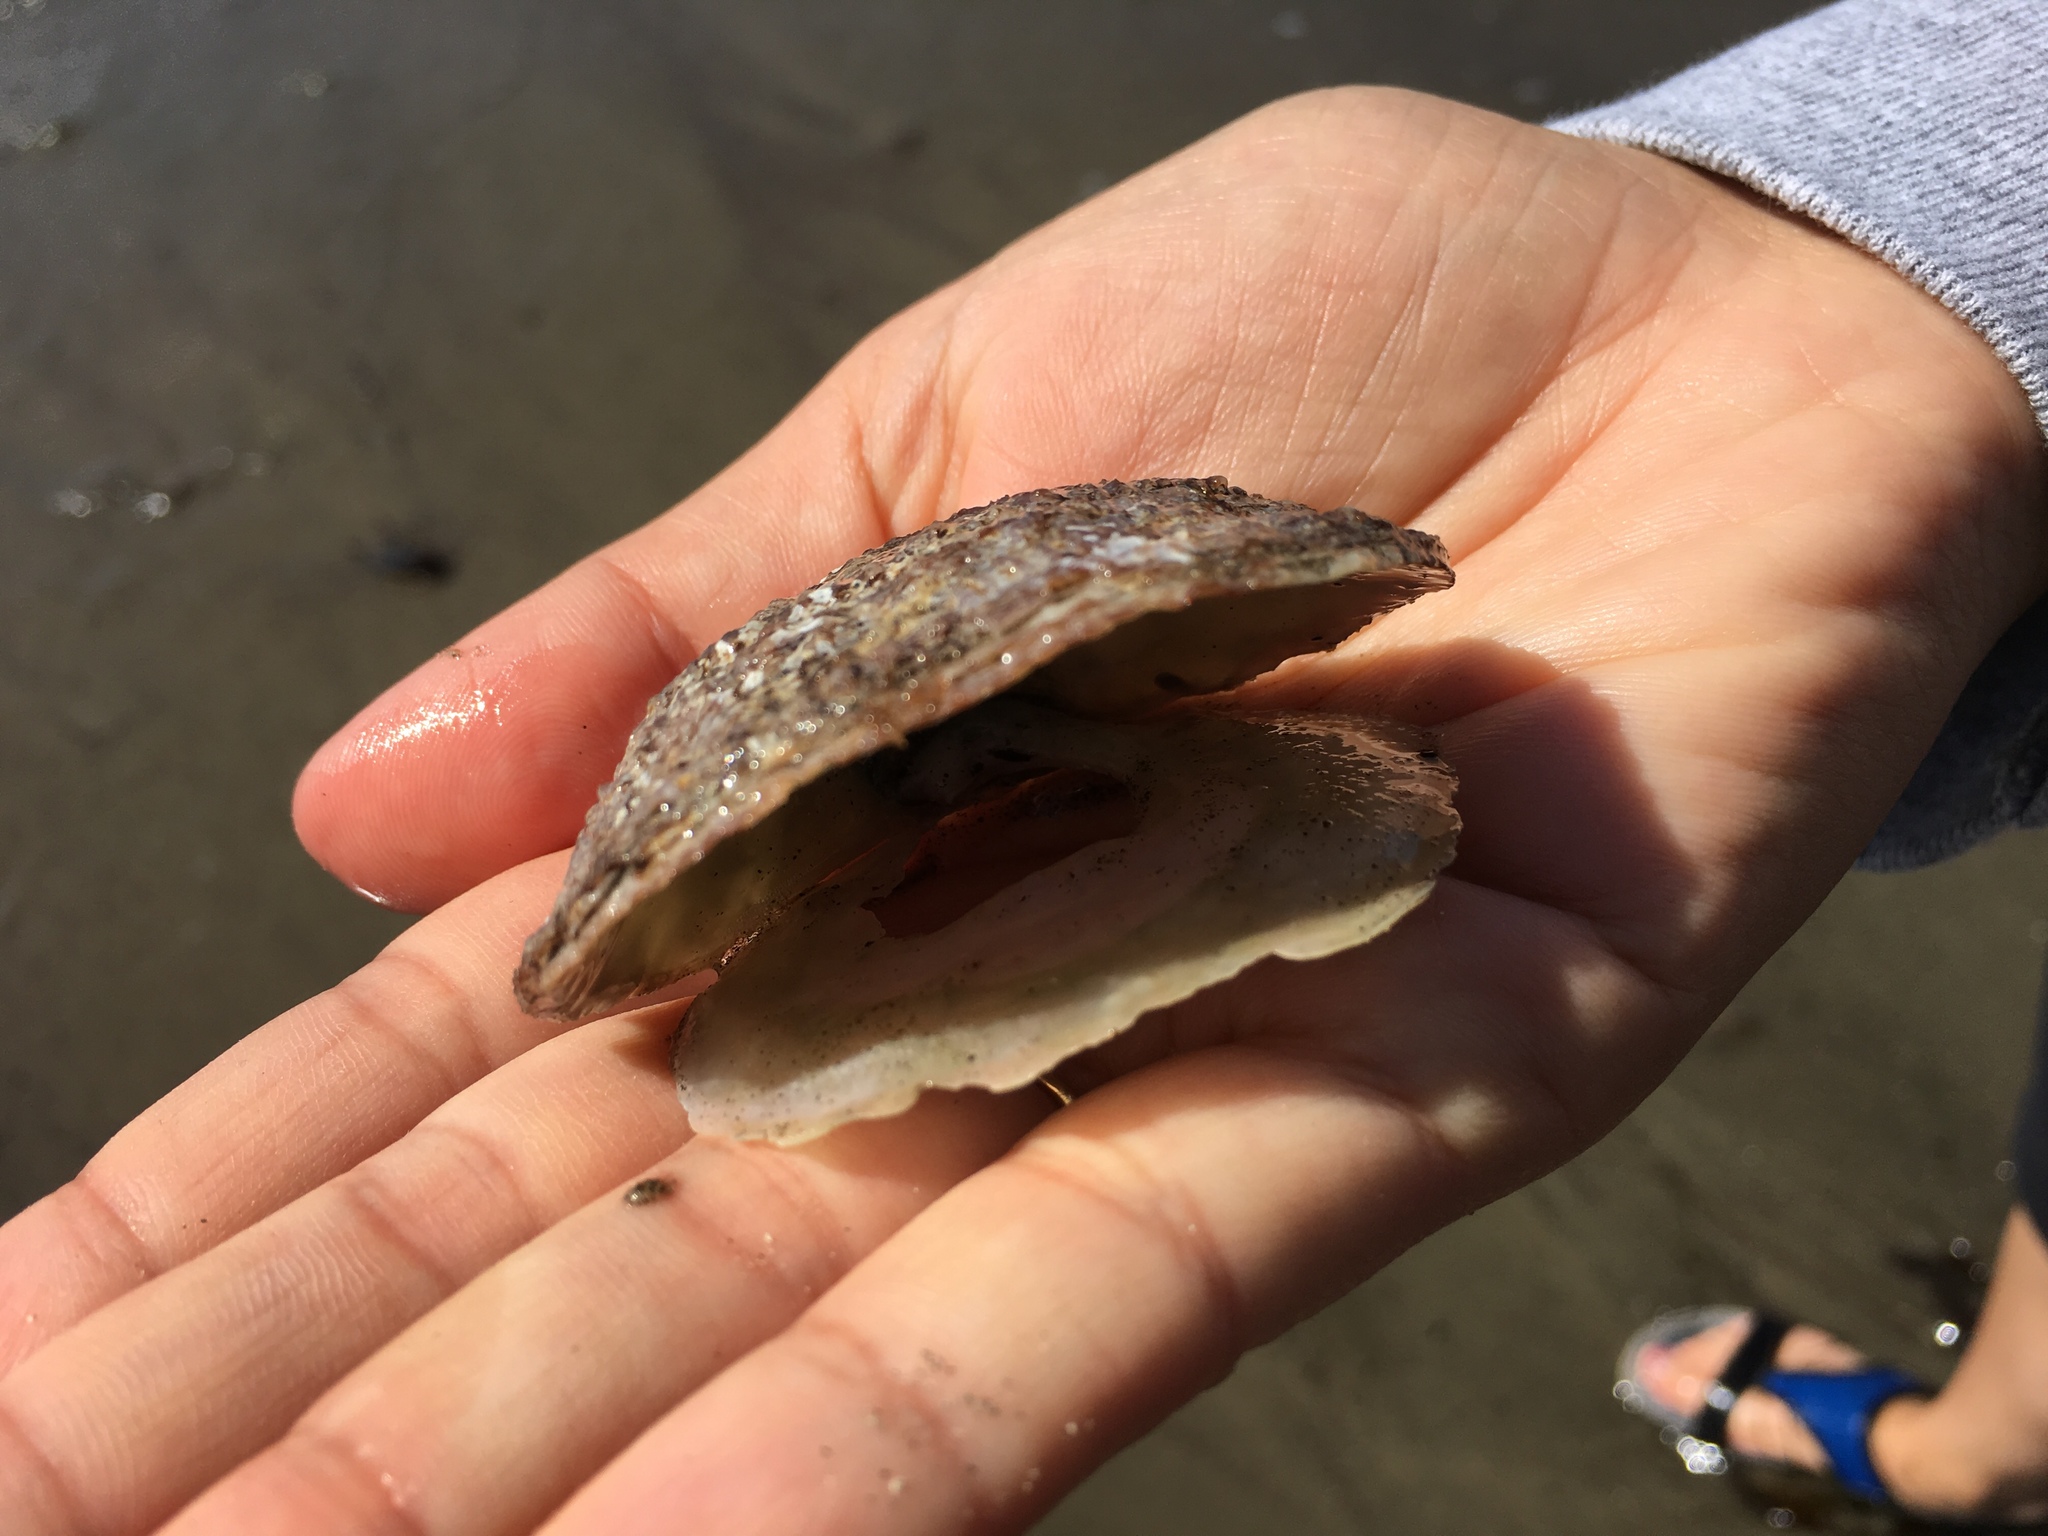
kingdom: Animalia
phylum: Mollusca
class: Bivalvia
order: Pectinida
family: Anomiidae
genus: Pododesmus
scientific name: Pododesmus macrochisma
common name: Alaska jingle
